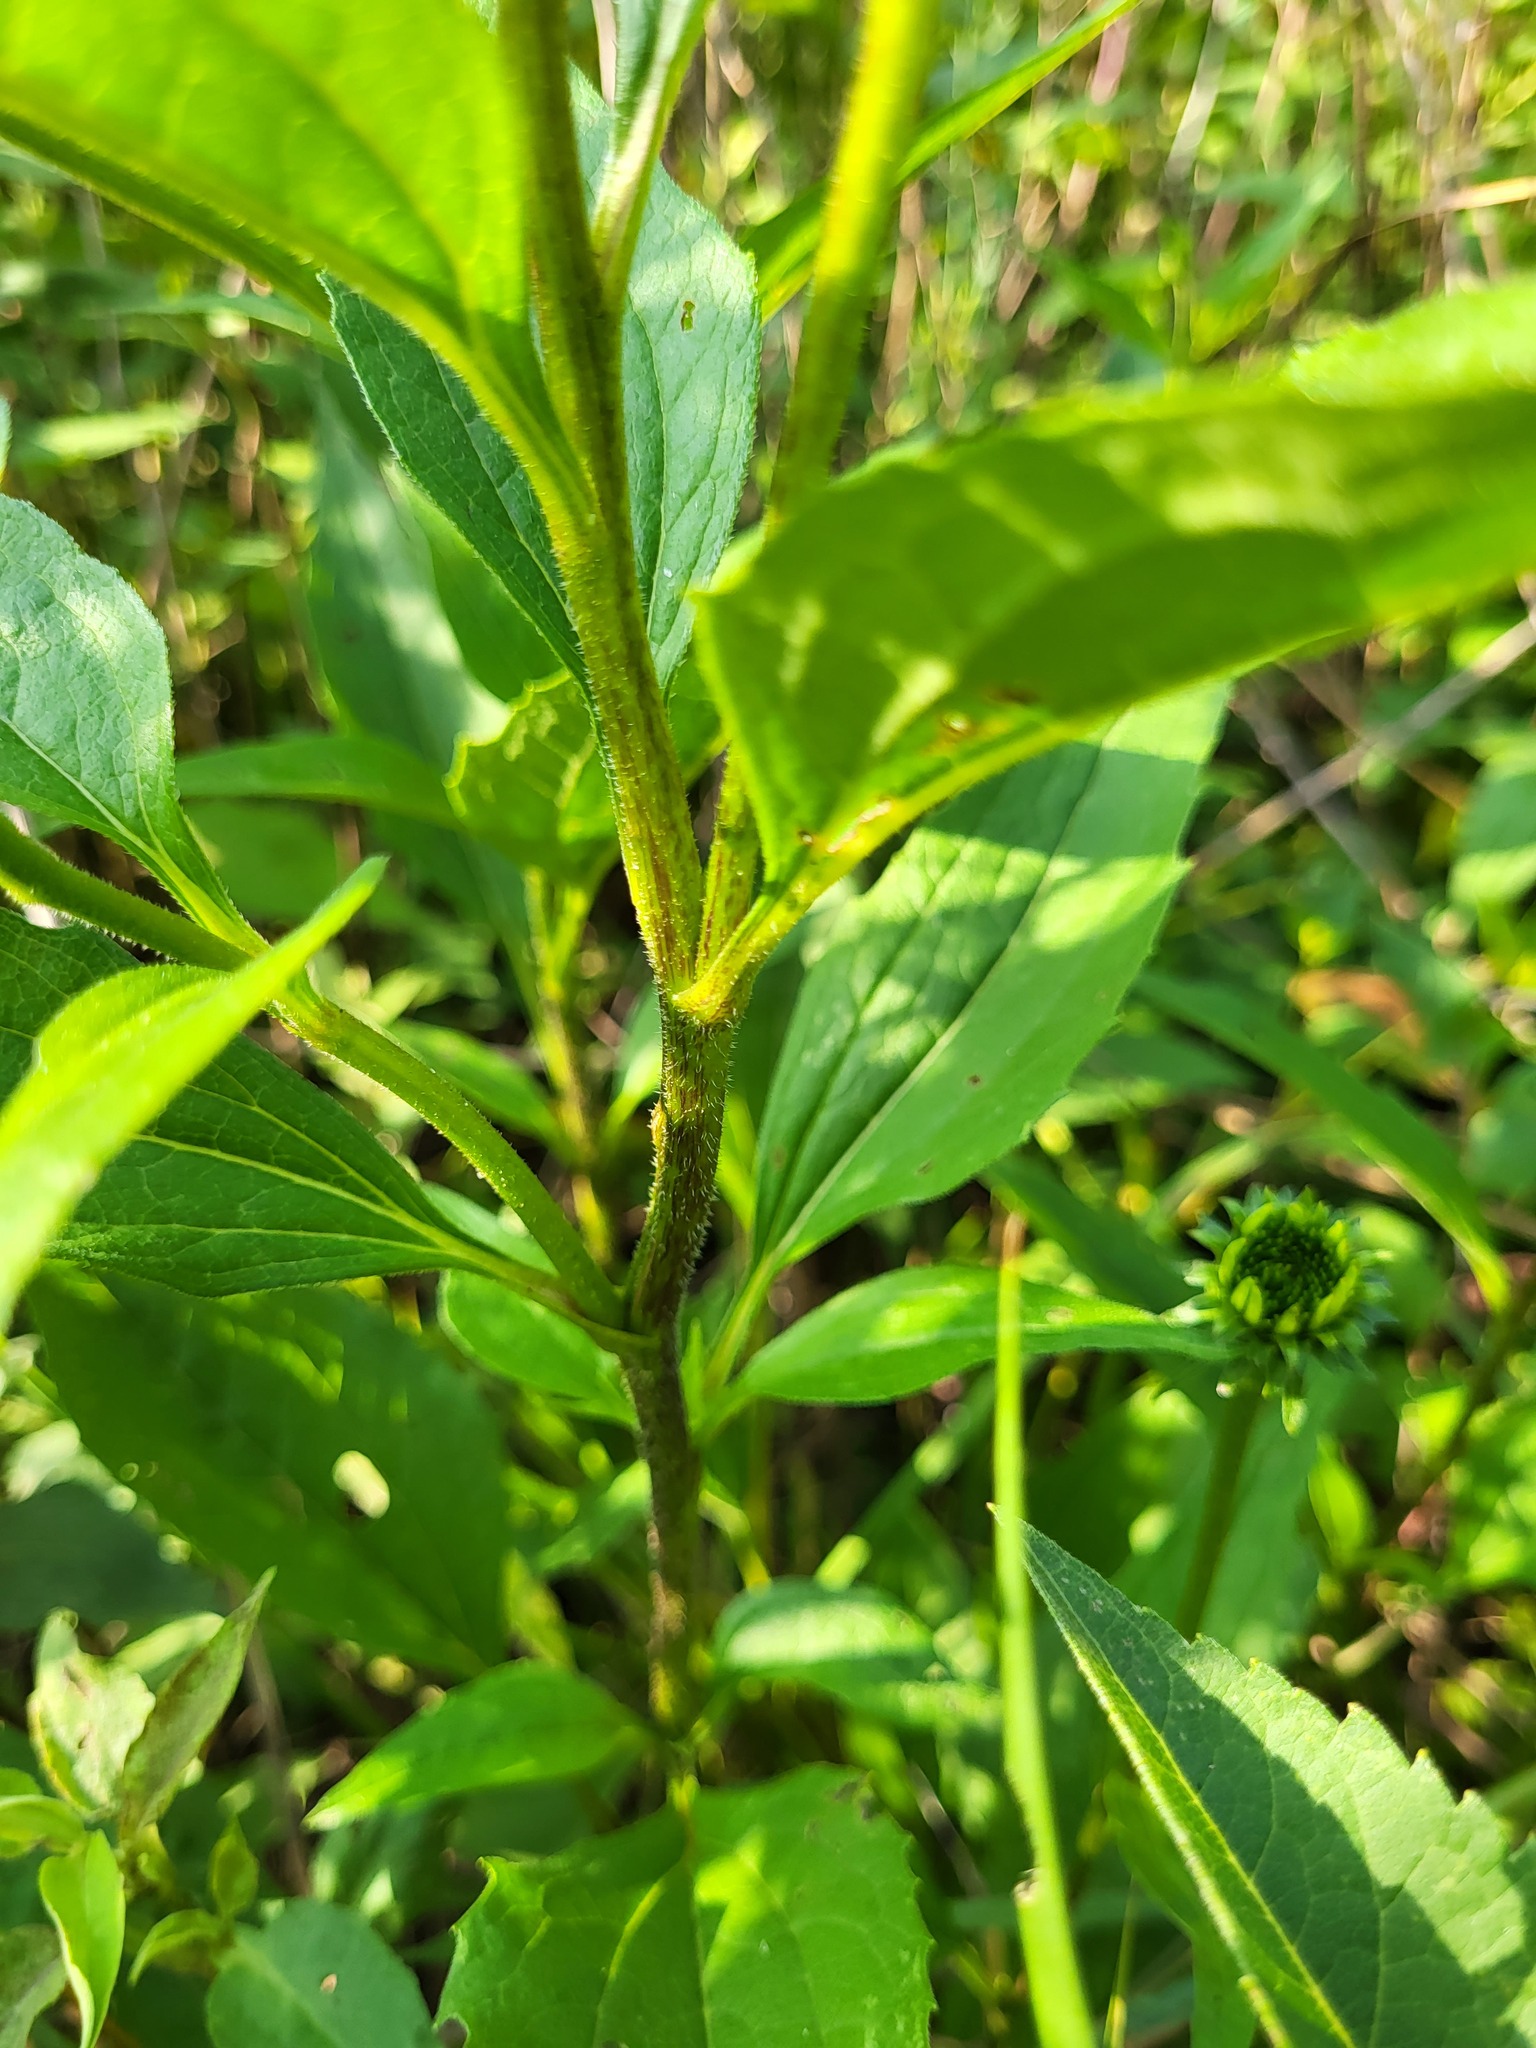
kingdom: Plantae
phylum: Tracheophyta
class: Magnoliopsida
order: Asterales
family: Asteraceae
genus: Echinacea
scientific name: Echinacea purpurea
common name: Broad-leaved purple coneflower
